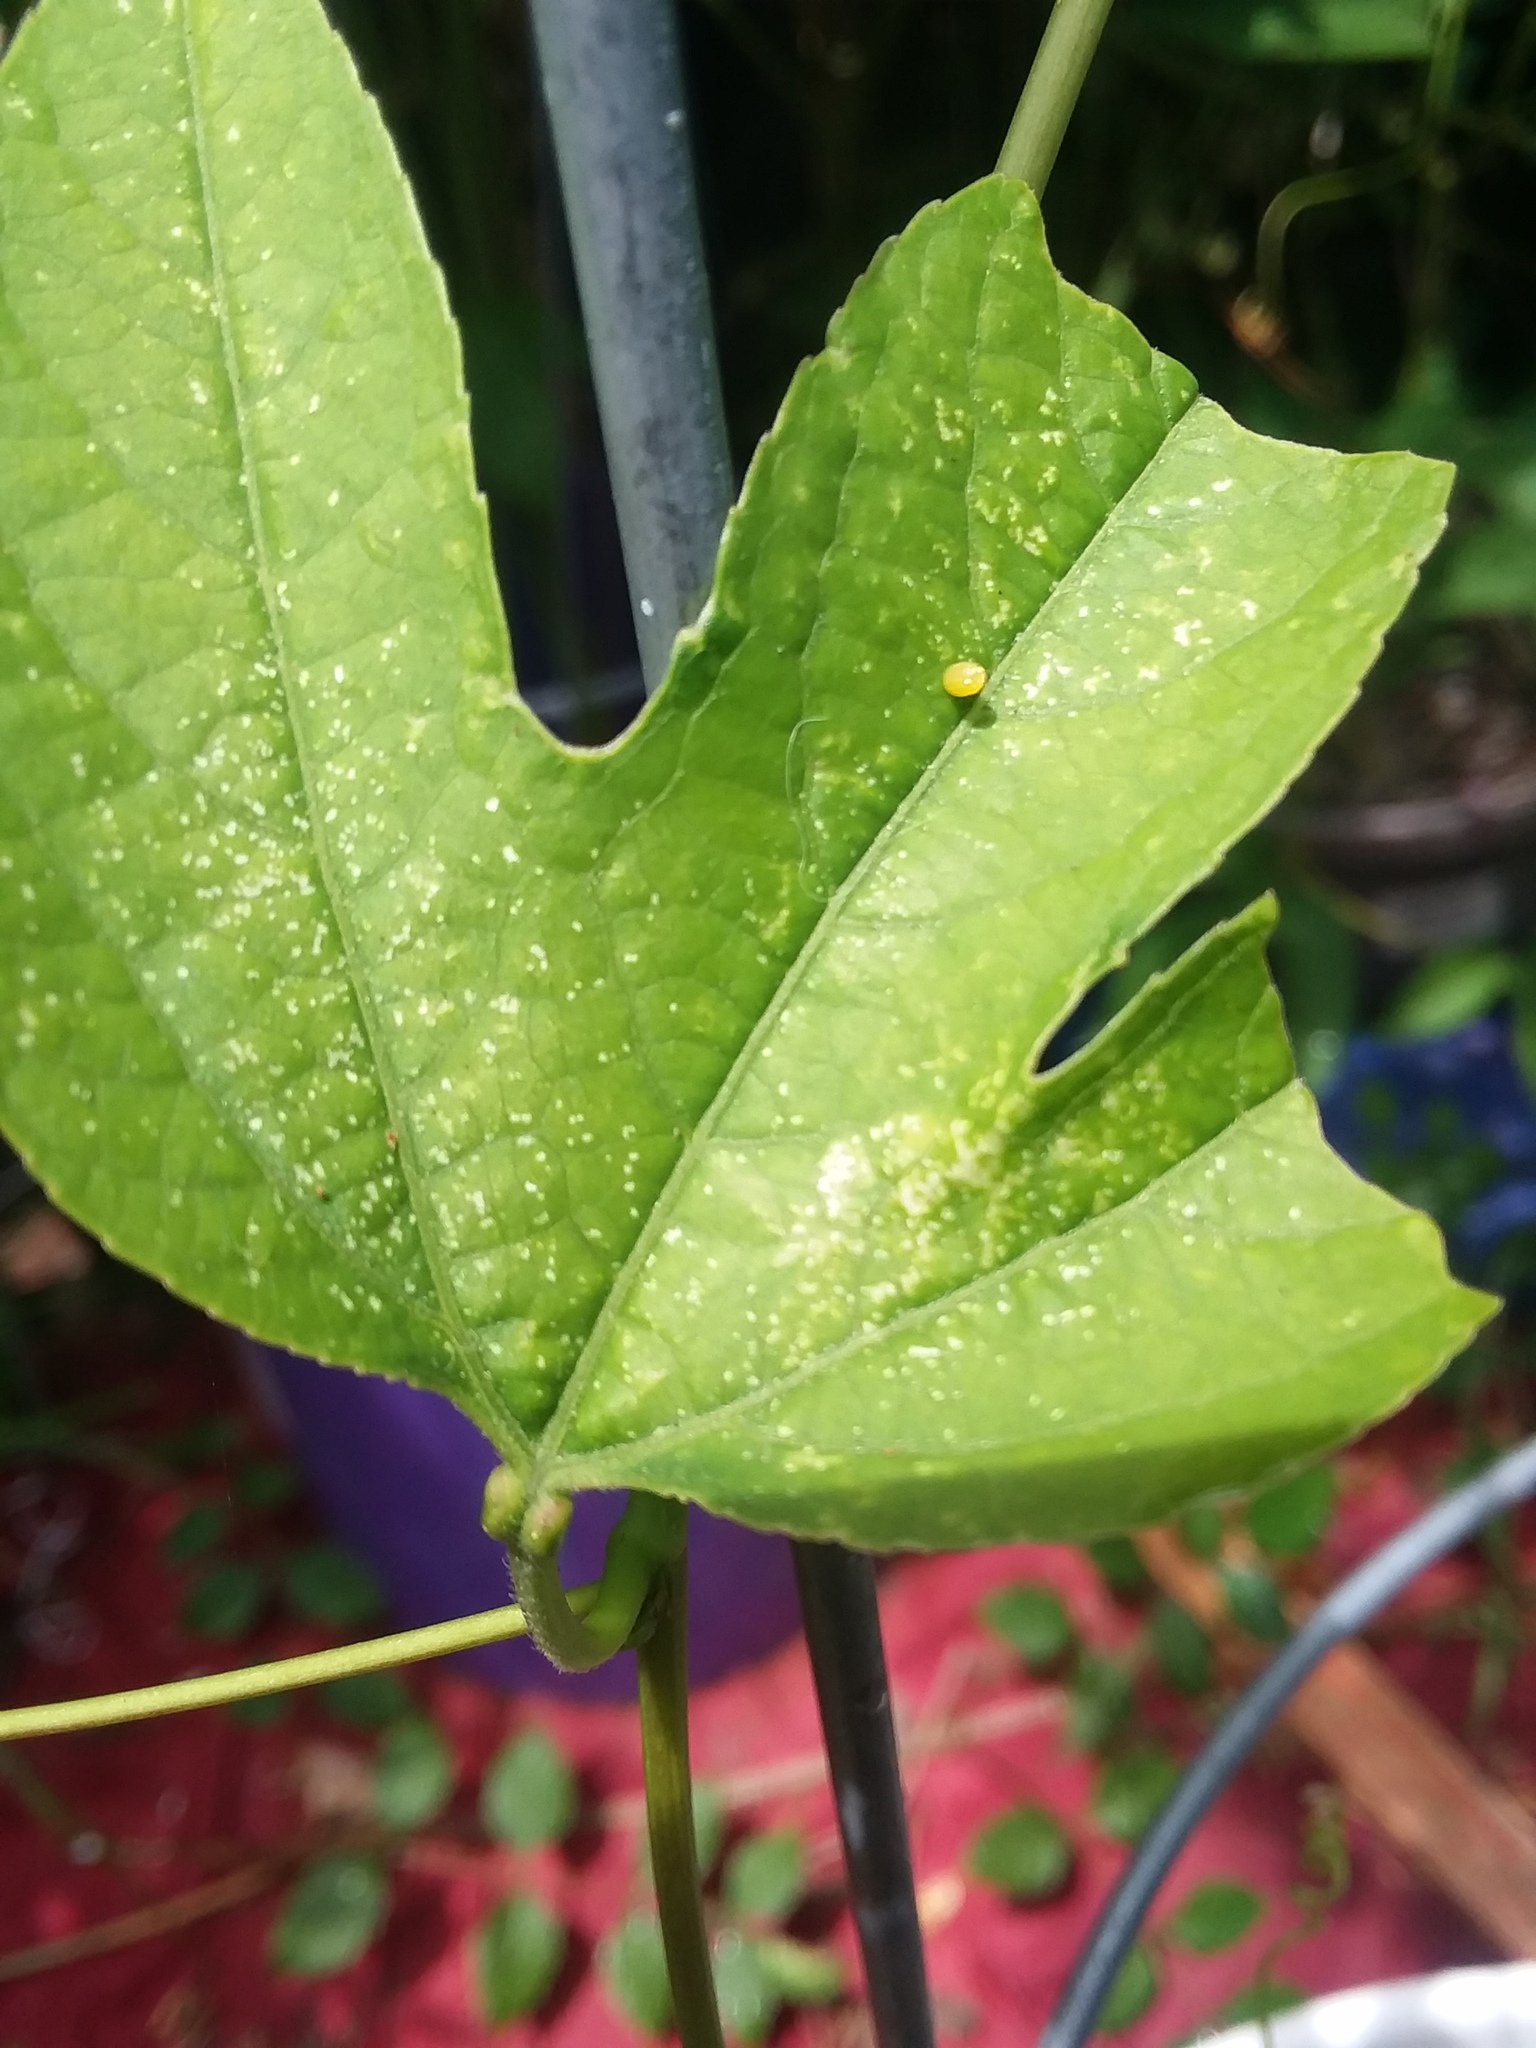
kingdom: Animalia
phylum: Arthropoda
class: Insecta
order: Lepidoptera
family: Nymphalidae
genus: Dione
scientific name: Dione vanillae
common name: Gulf fritillary
